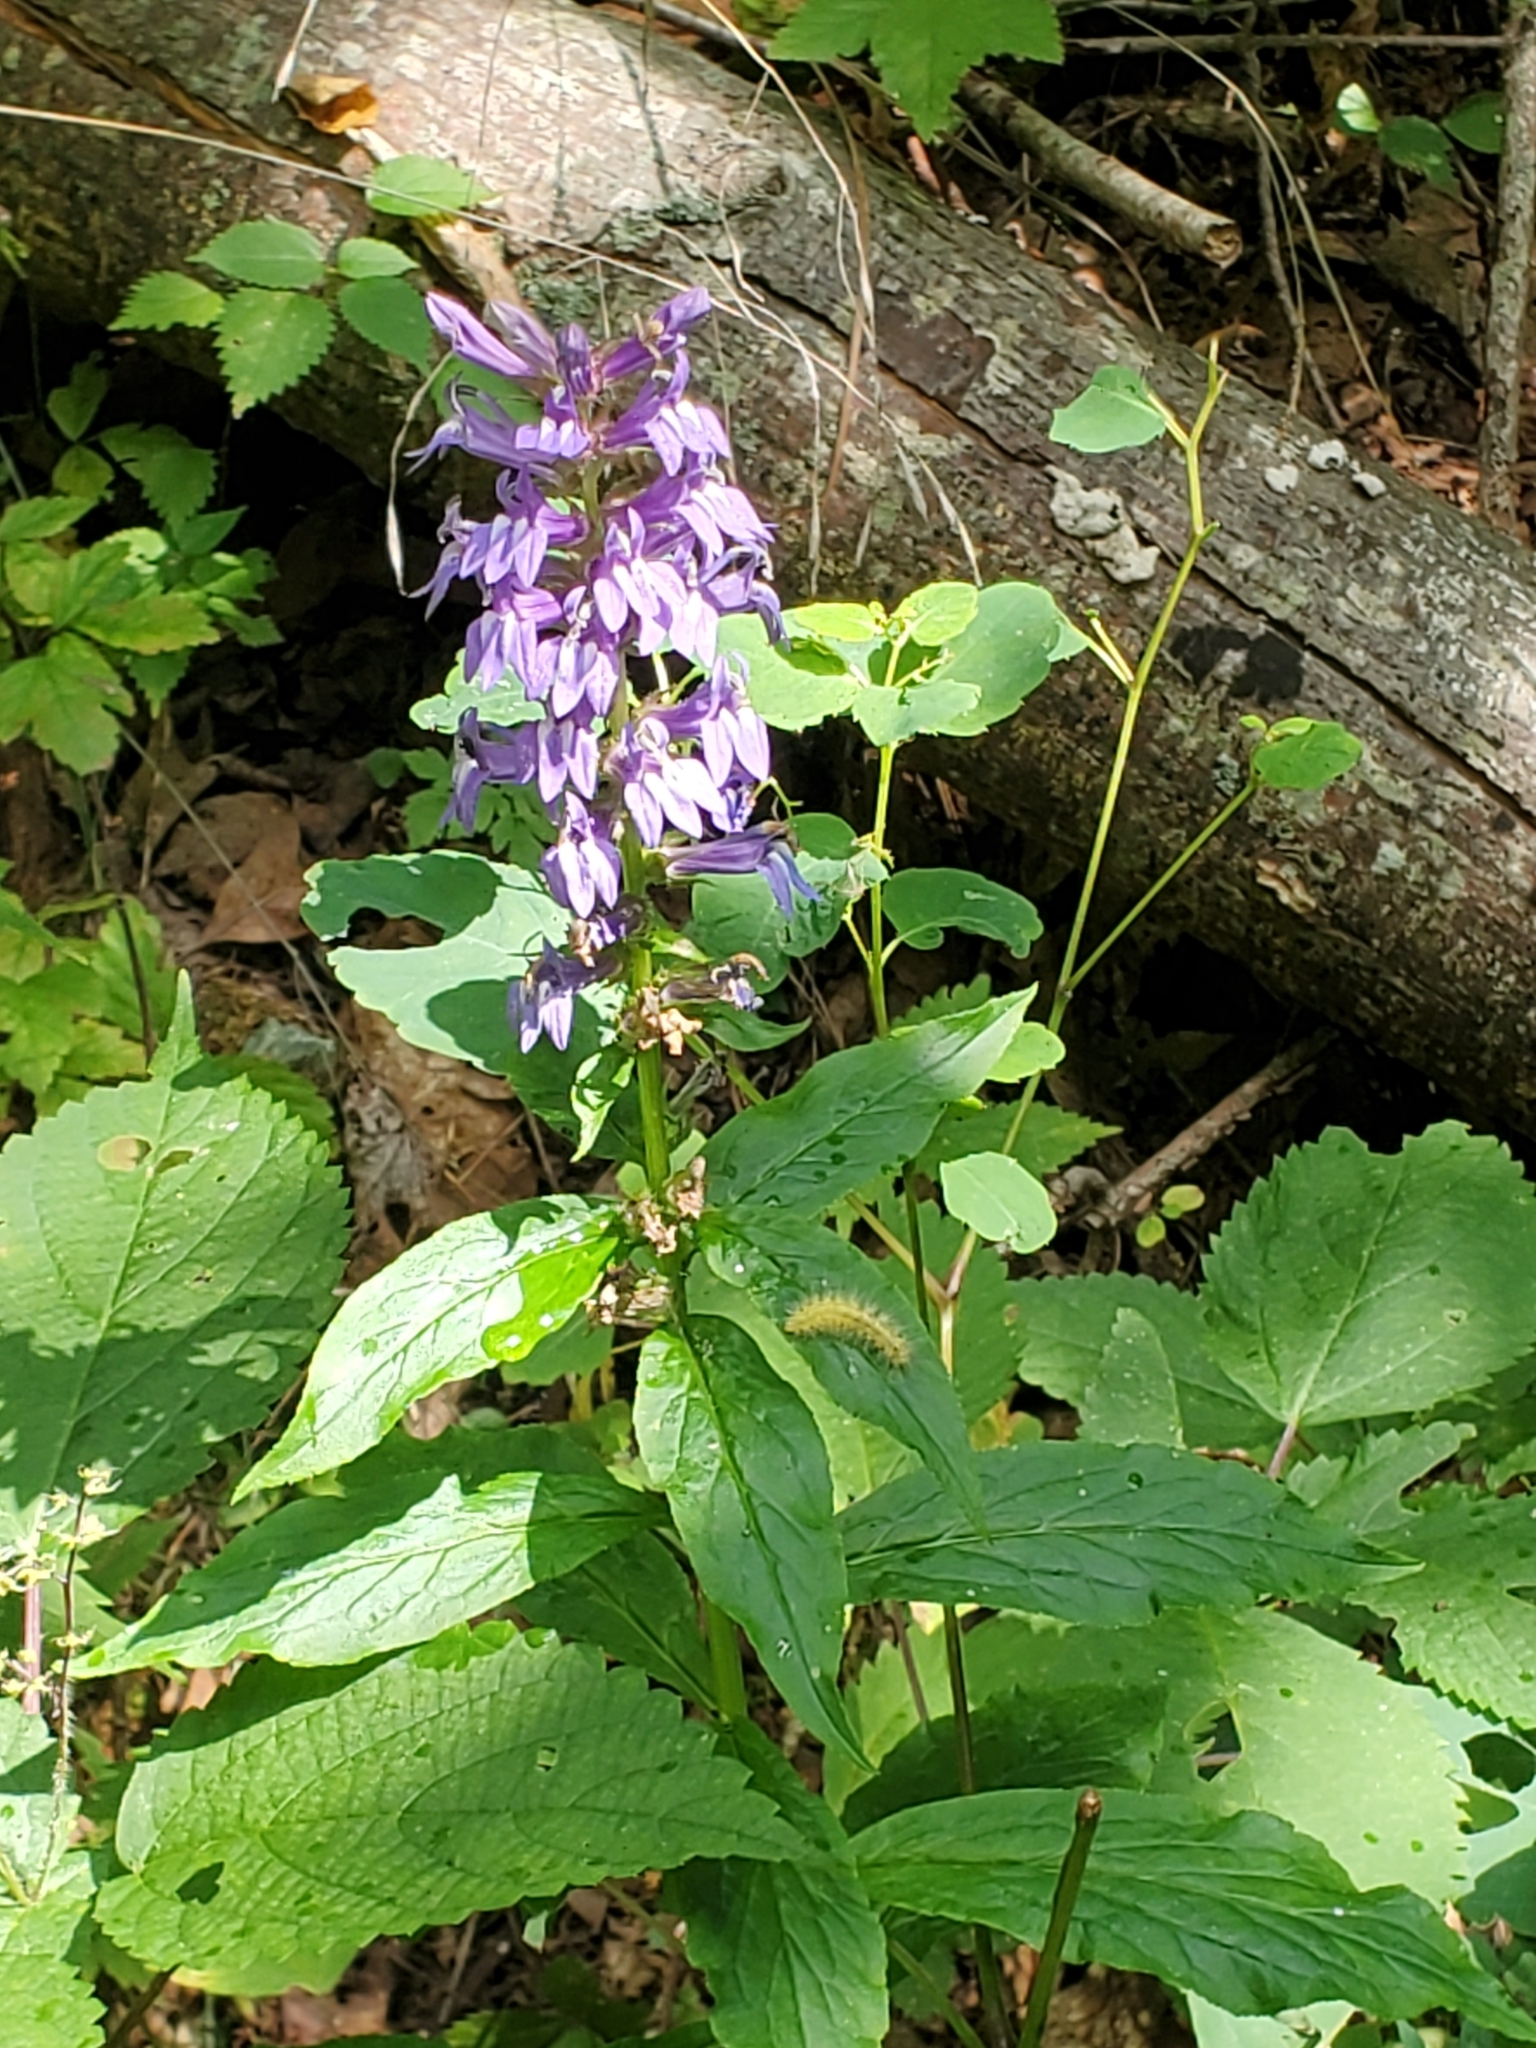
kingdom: Plantae
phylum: Tracheophyta
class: Magnoliopsida
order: Asterales
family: Campanulaceae
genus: Lobelia
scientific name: Lobelia siphilitica
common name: Great lobelia
